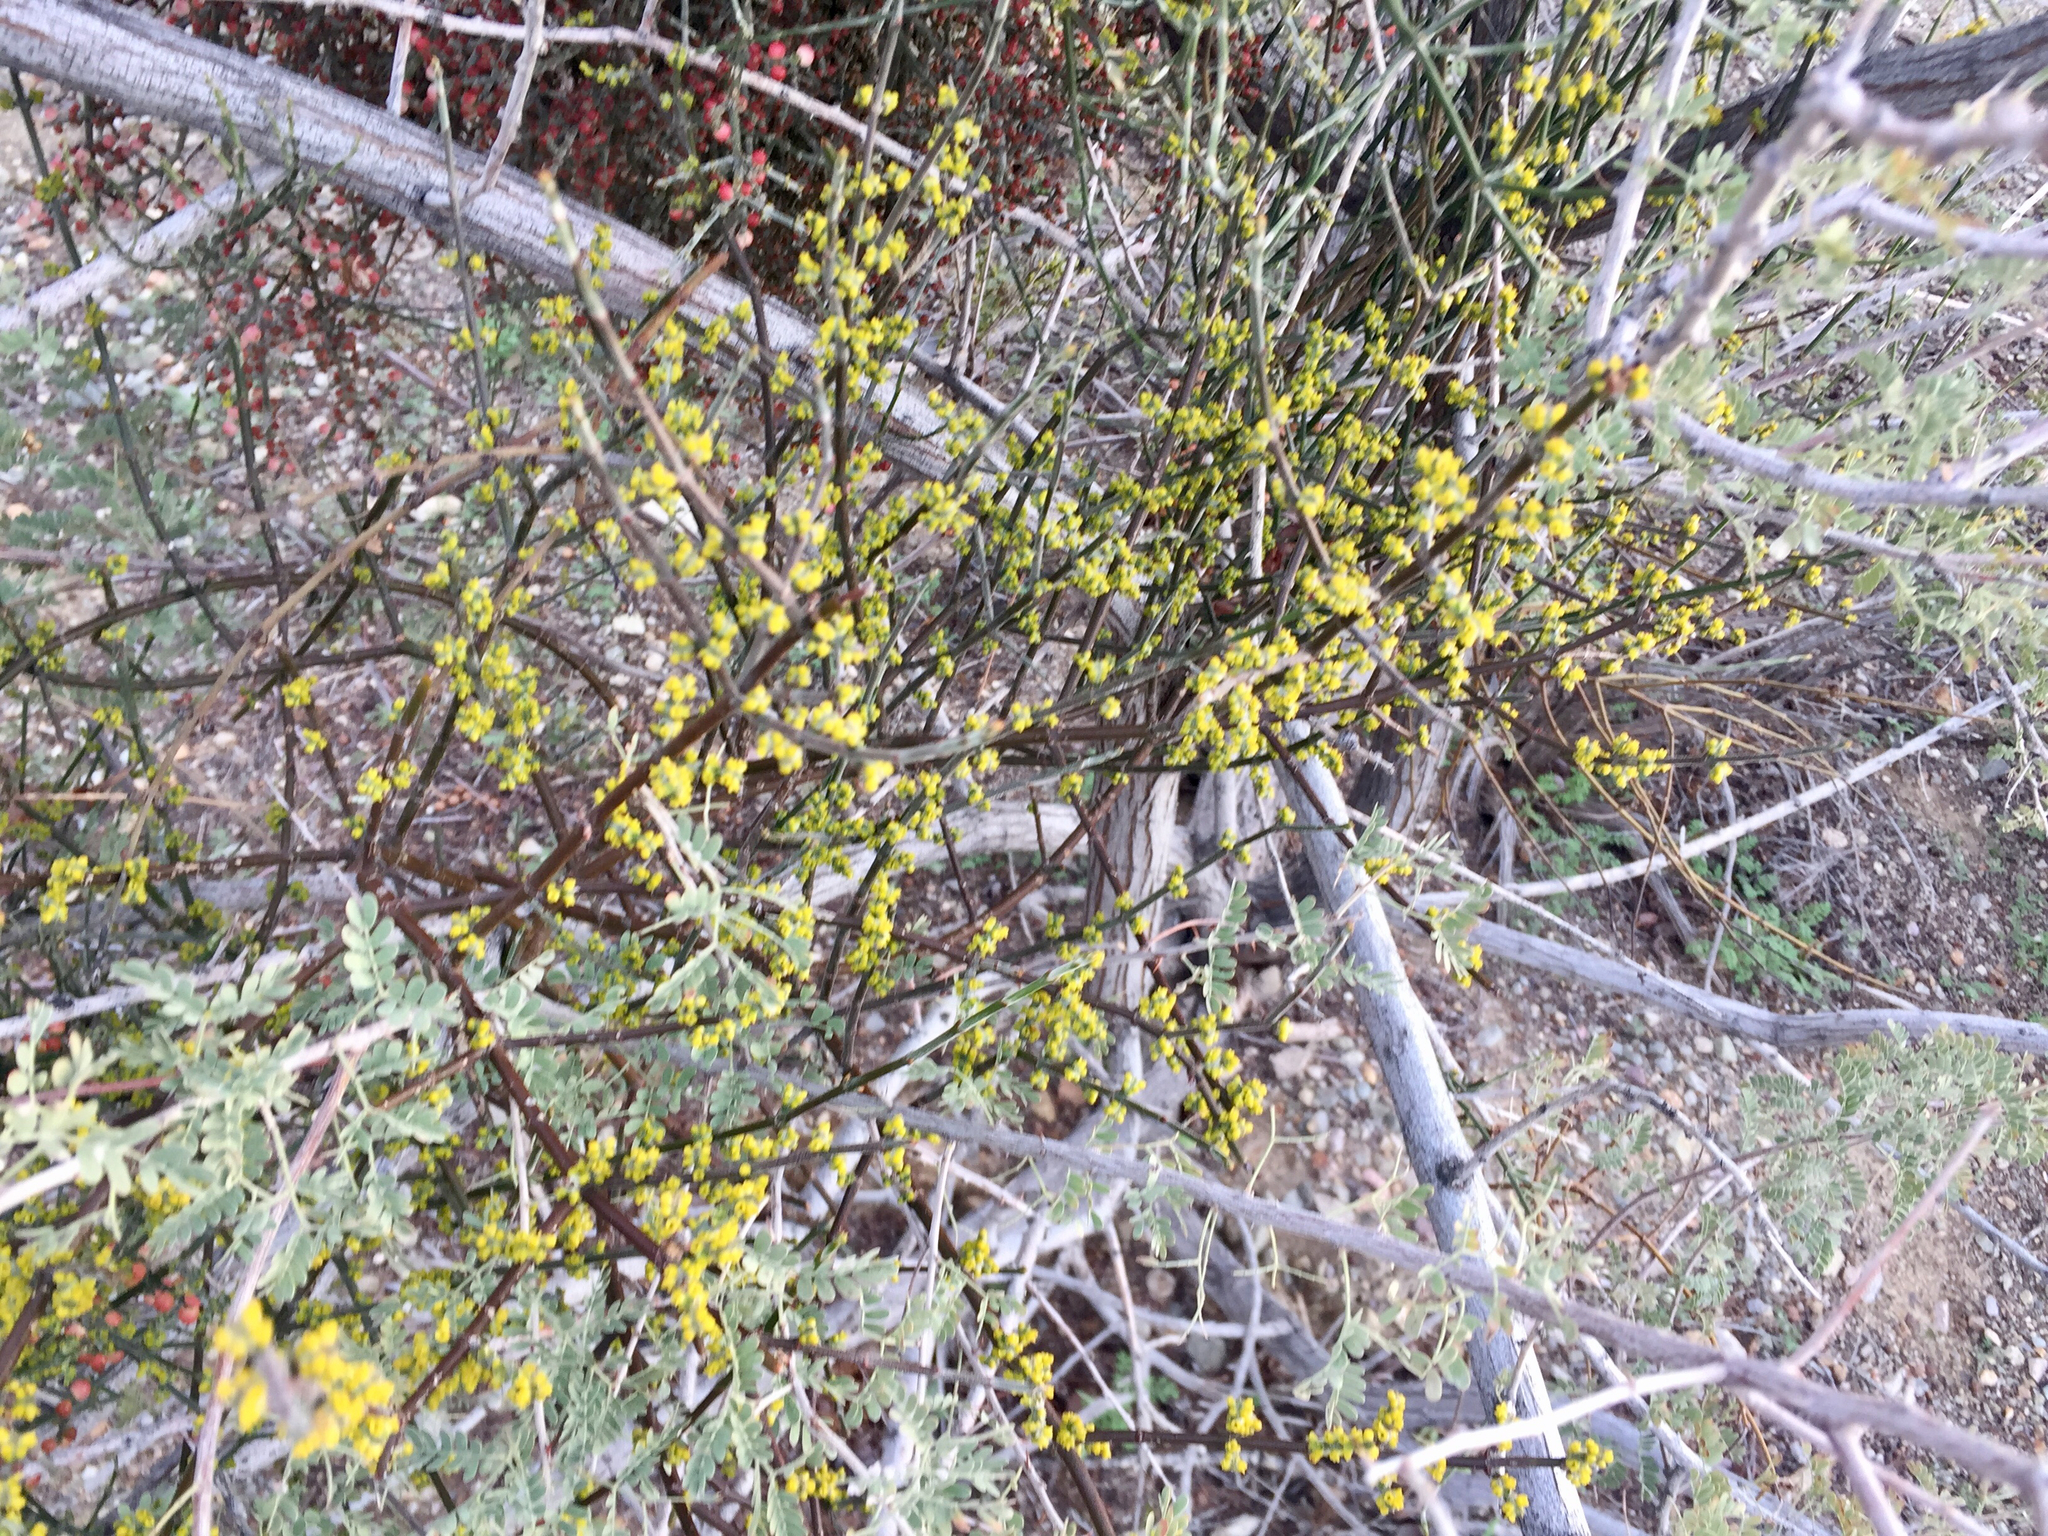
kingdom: Plantae
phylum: Tracheophyta
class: Magnoliopsida
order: Santalales
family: Viscaceae
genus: Phoradendron
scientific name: Phoradendron californicum
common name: Acacia mistletoe
